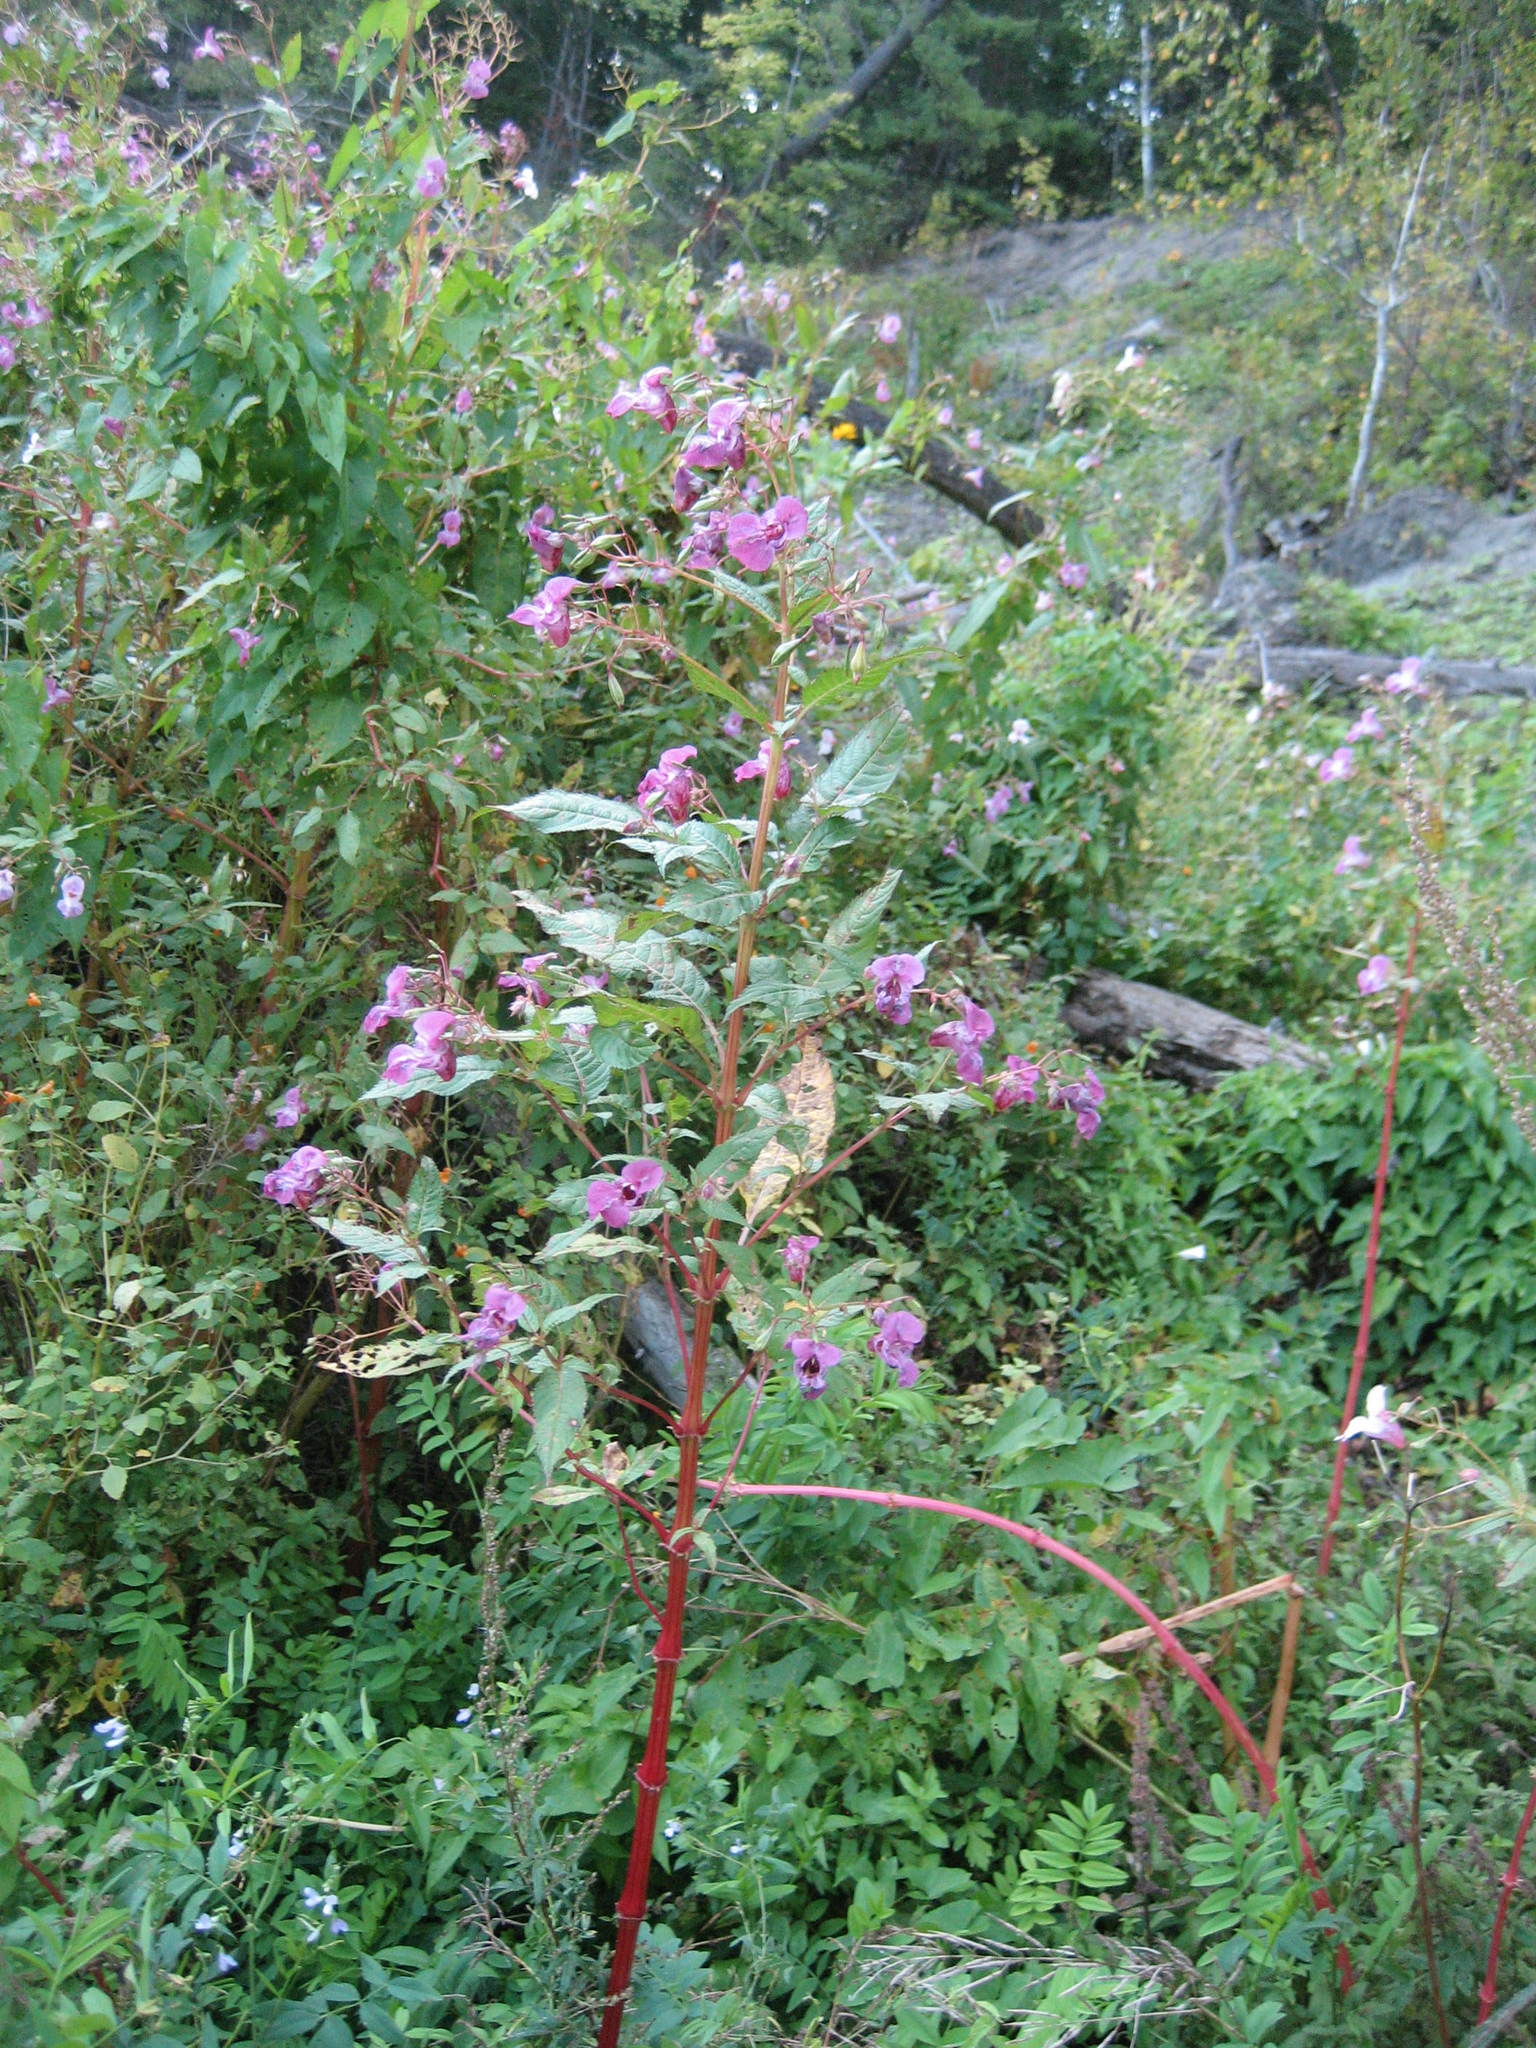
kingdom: Plantae
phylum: Tracheophyta
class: Magnoliopsida
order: Ericales
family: Balsaminaceae
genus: Impatiens
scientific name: Impatiens glandulifera
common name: Himalayan balsam
